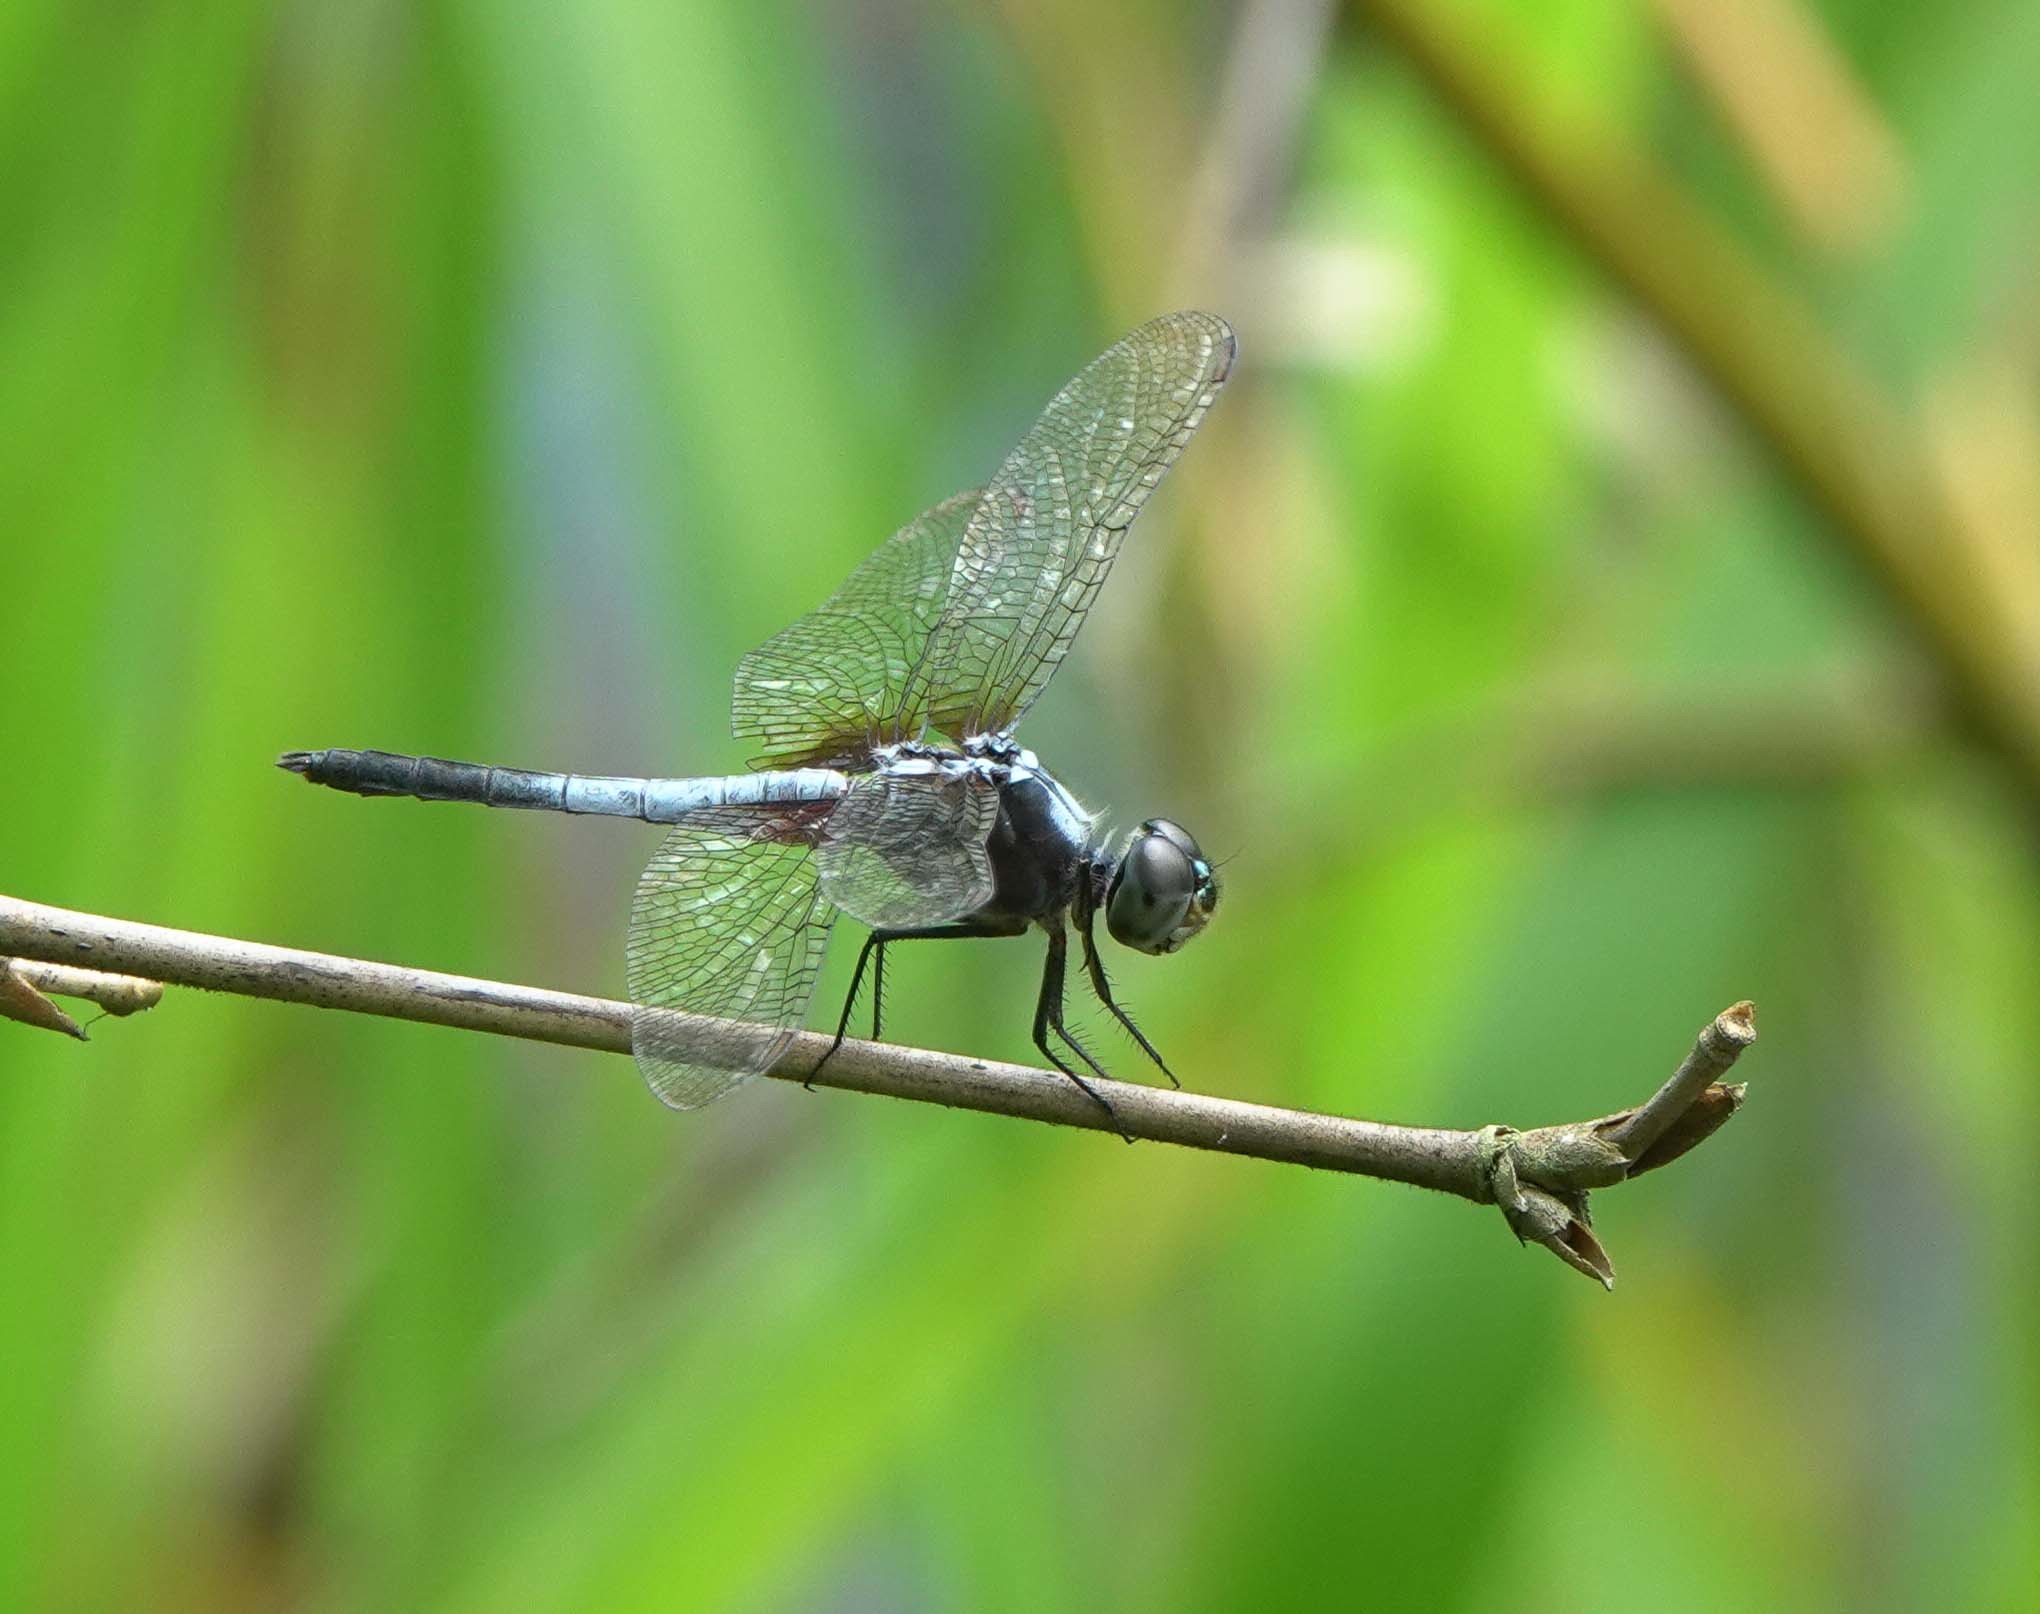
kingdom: Animalia
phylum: Arthropoda
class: Insecta
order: Odonata
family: Libellulidae
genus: Brachydiplax
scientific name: Brachydiplax chalybea
